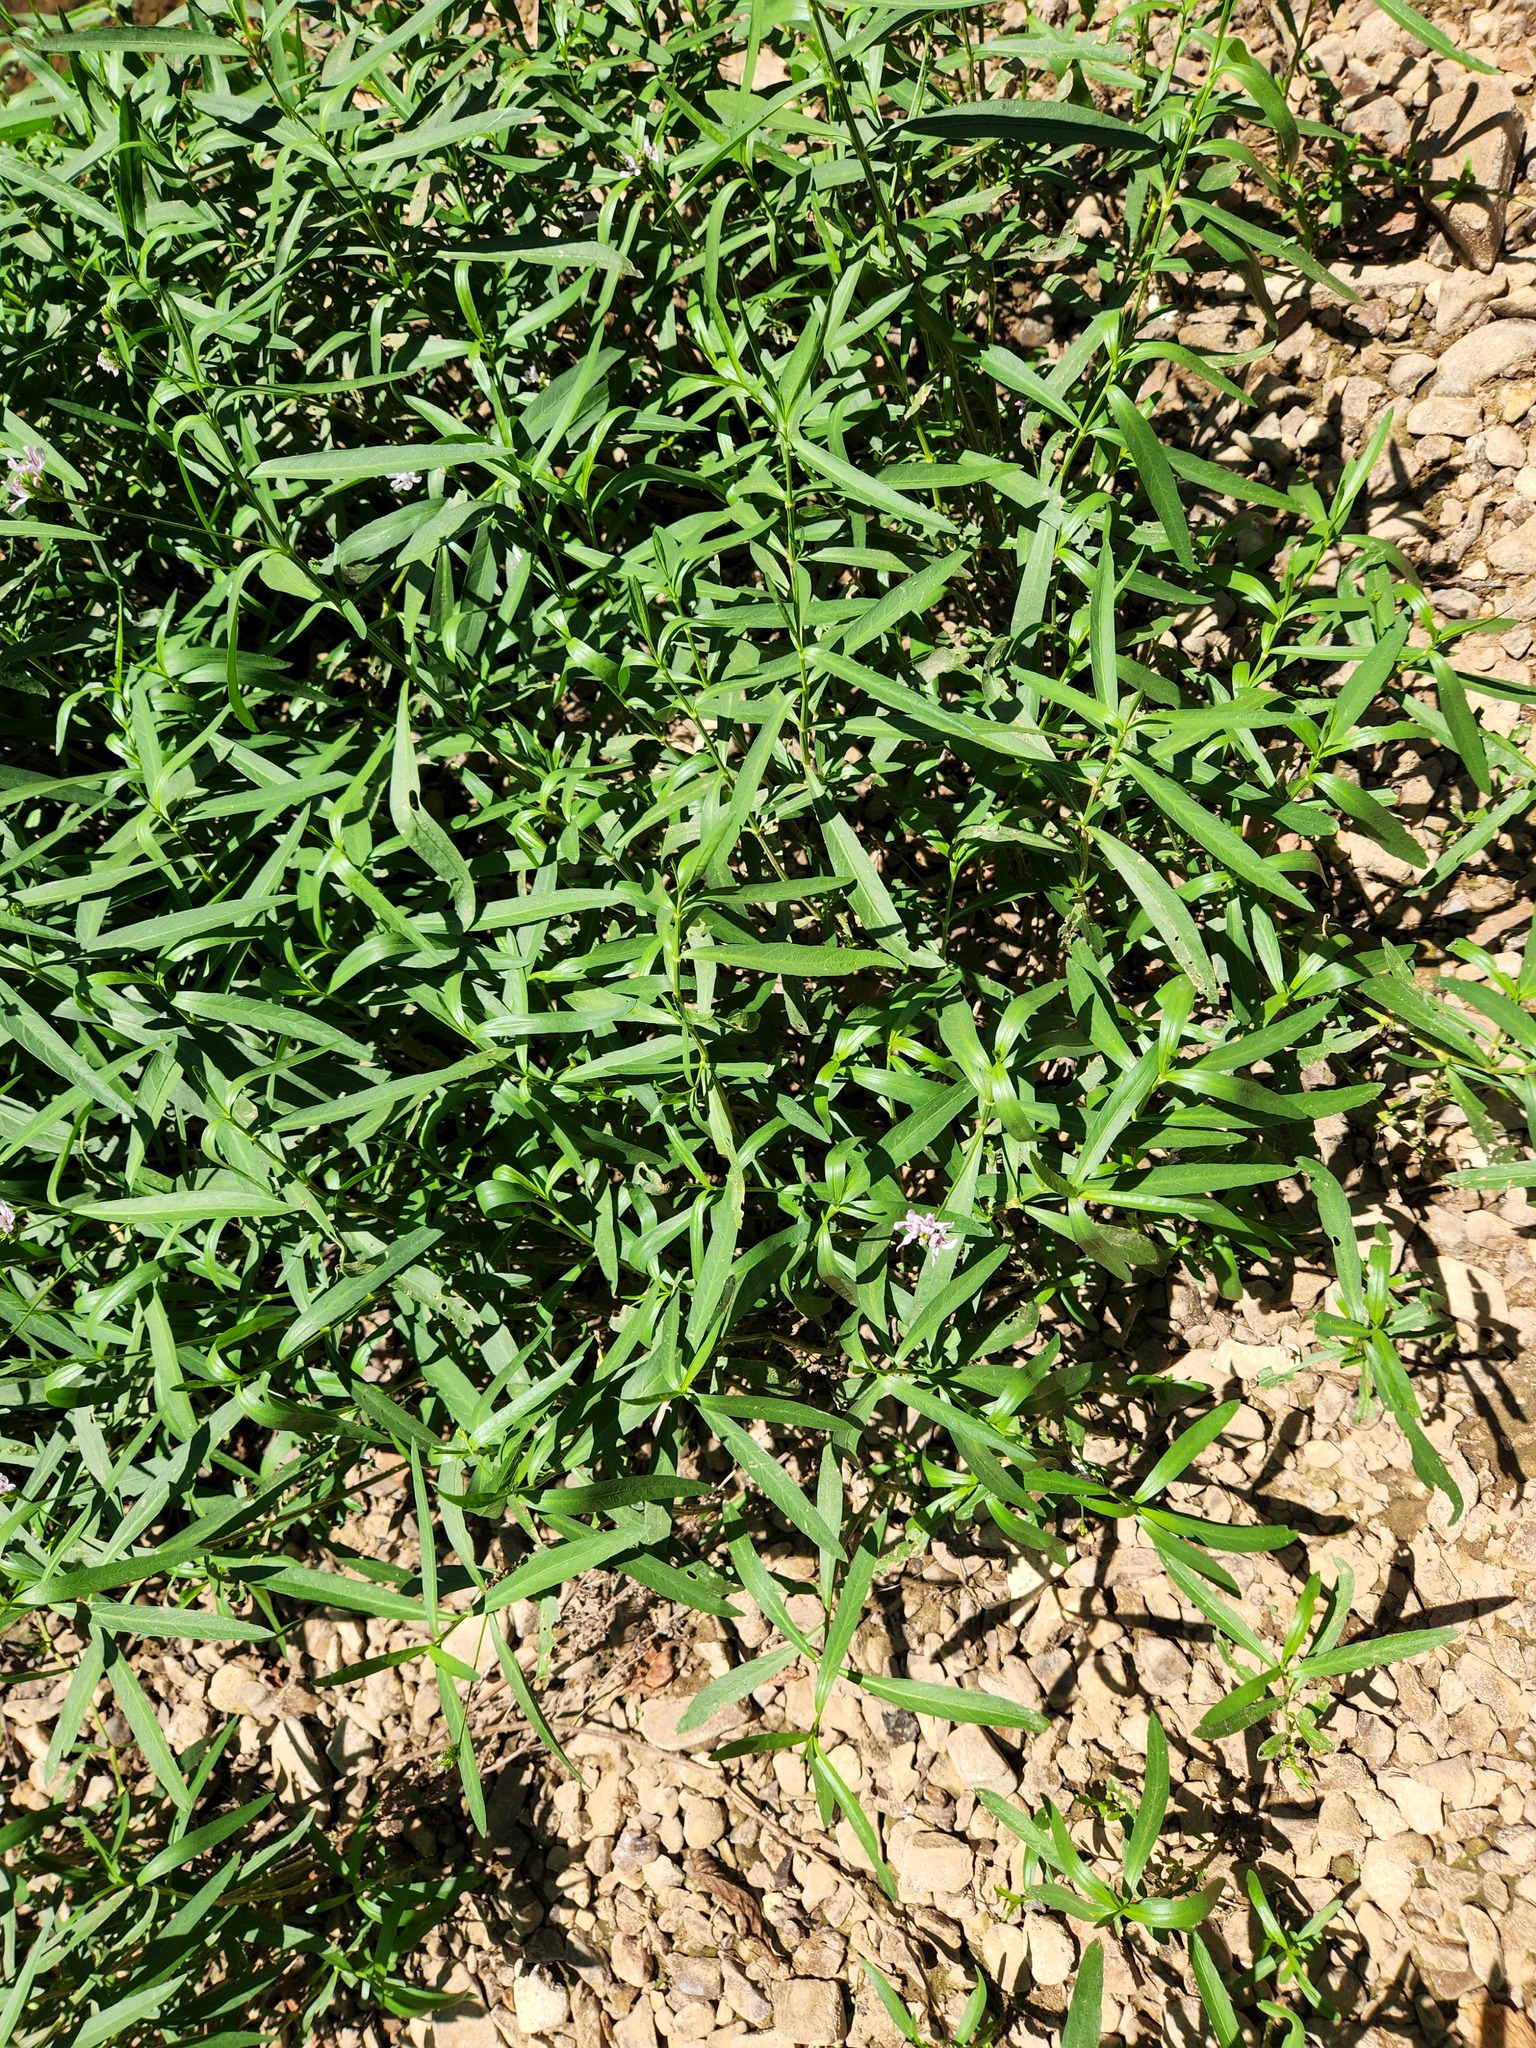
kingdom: Plantae
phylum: Tracheophyta
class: Magnoliopsida
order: Lamiales
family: Acanthaceae
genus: Dianthera
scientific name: Dianthera americana
